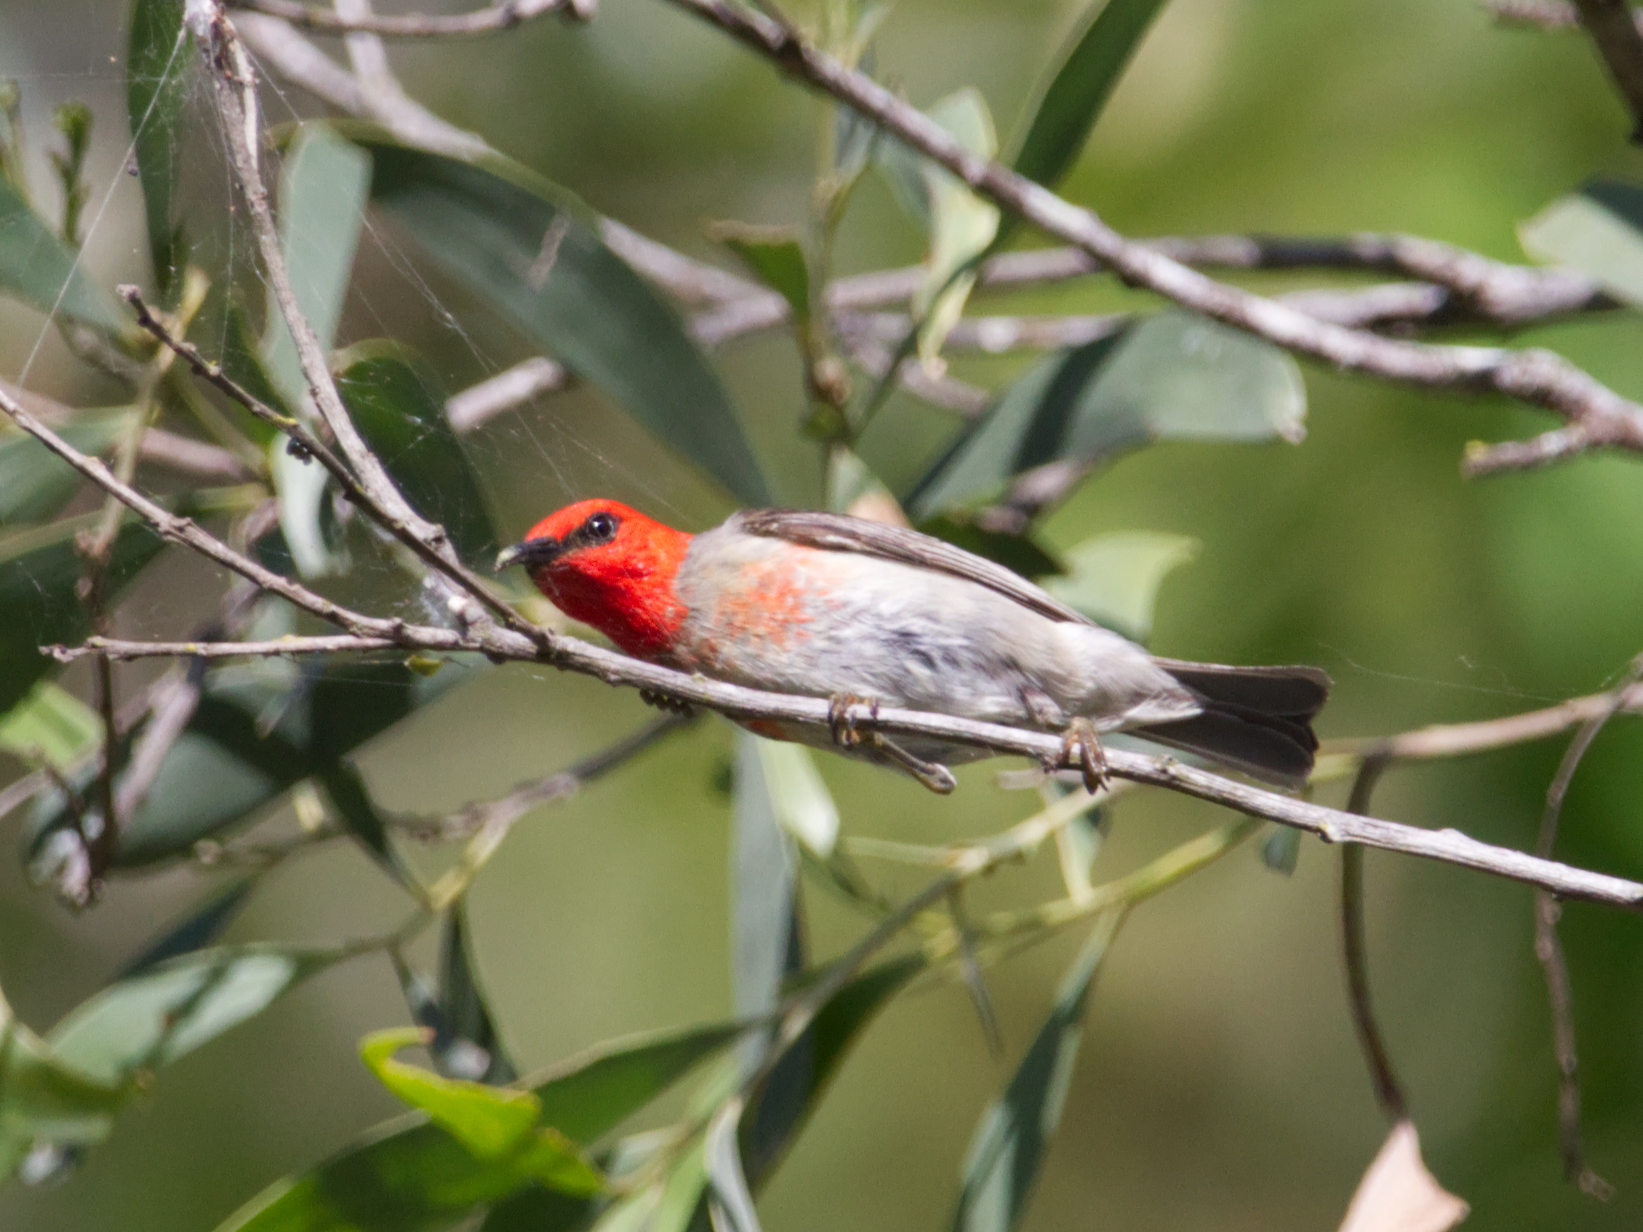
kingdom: Animalia
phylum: Chordata
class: Aves
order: Passeriformes
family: Meliphagidae
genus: Myzomela
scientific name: Myzomela sanguinolenta
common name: Scarlet myzomela
